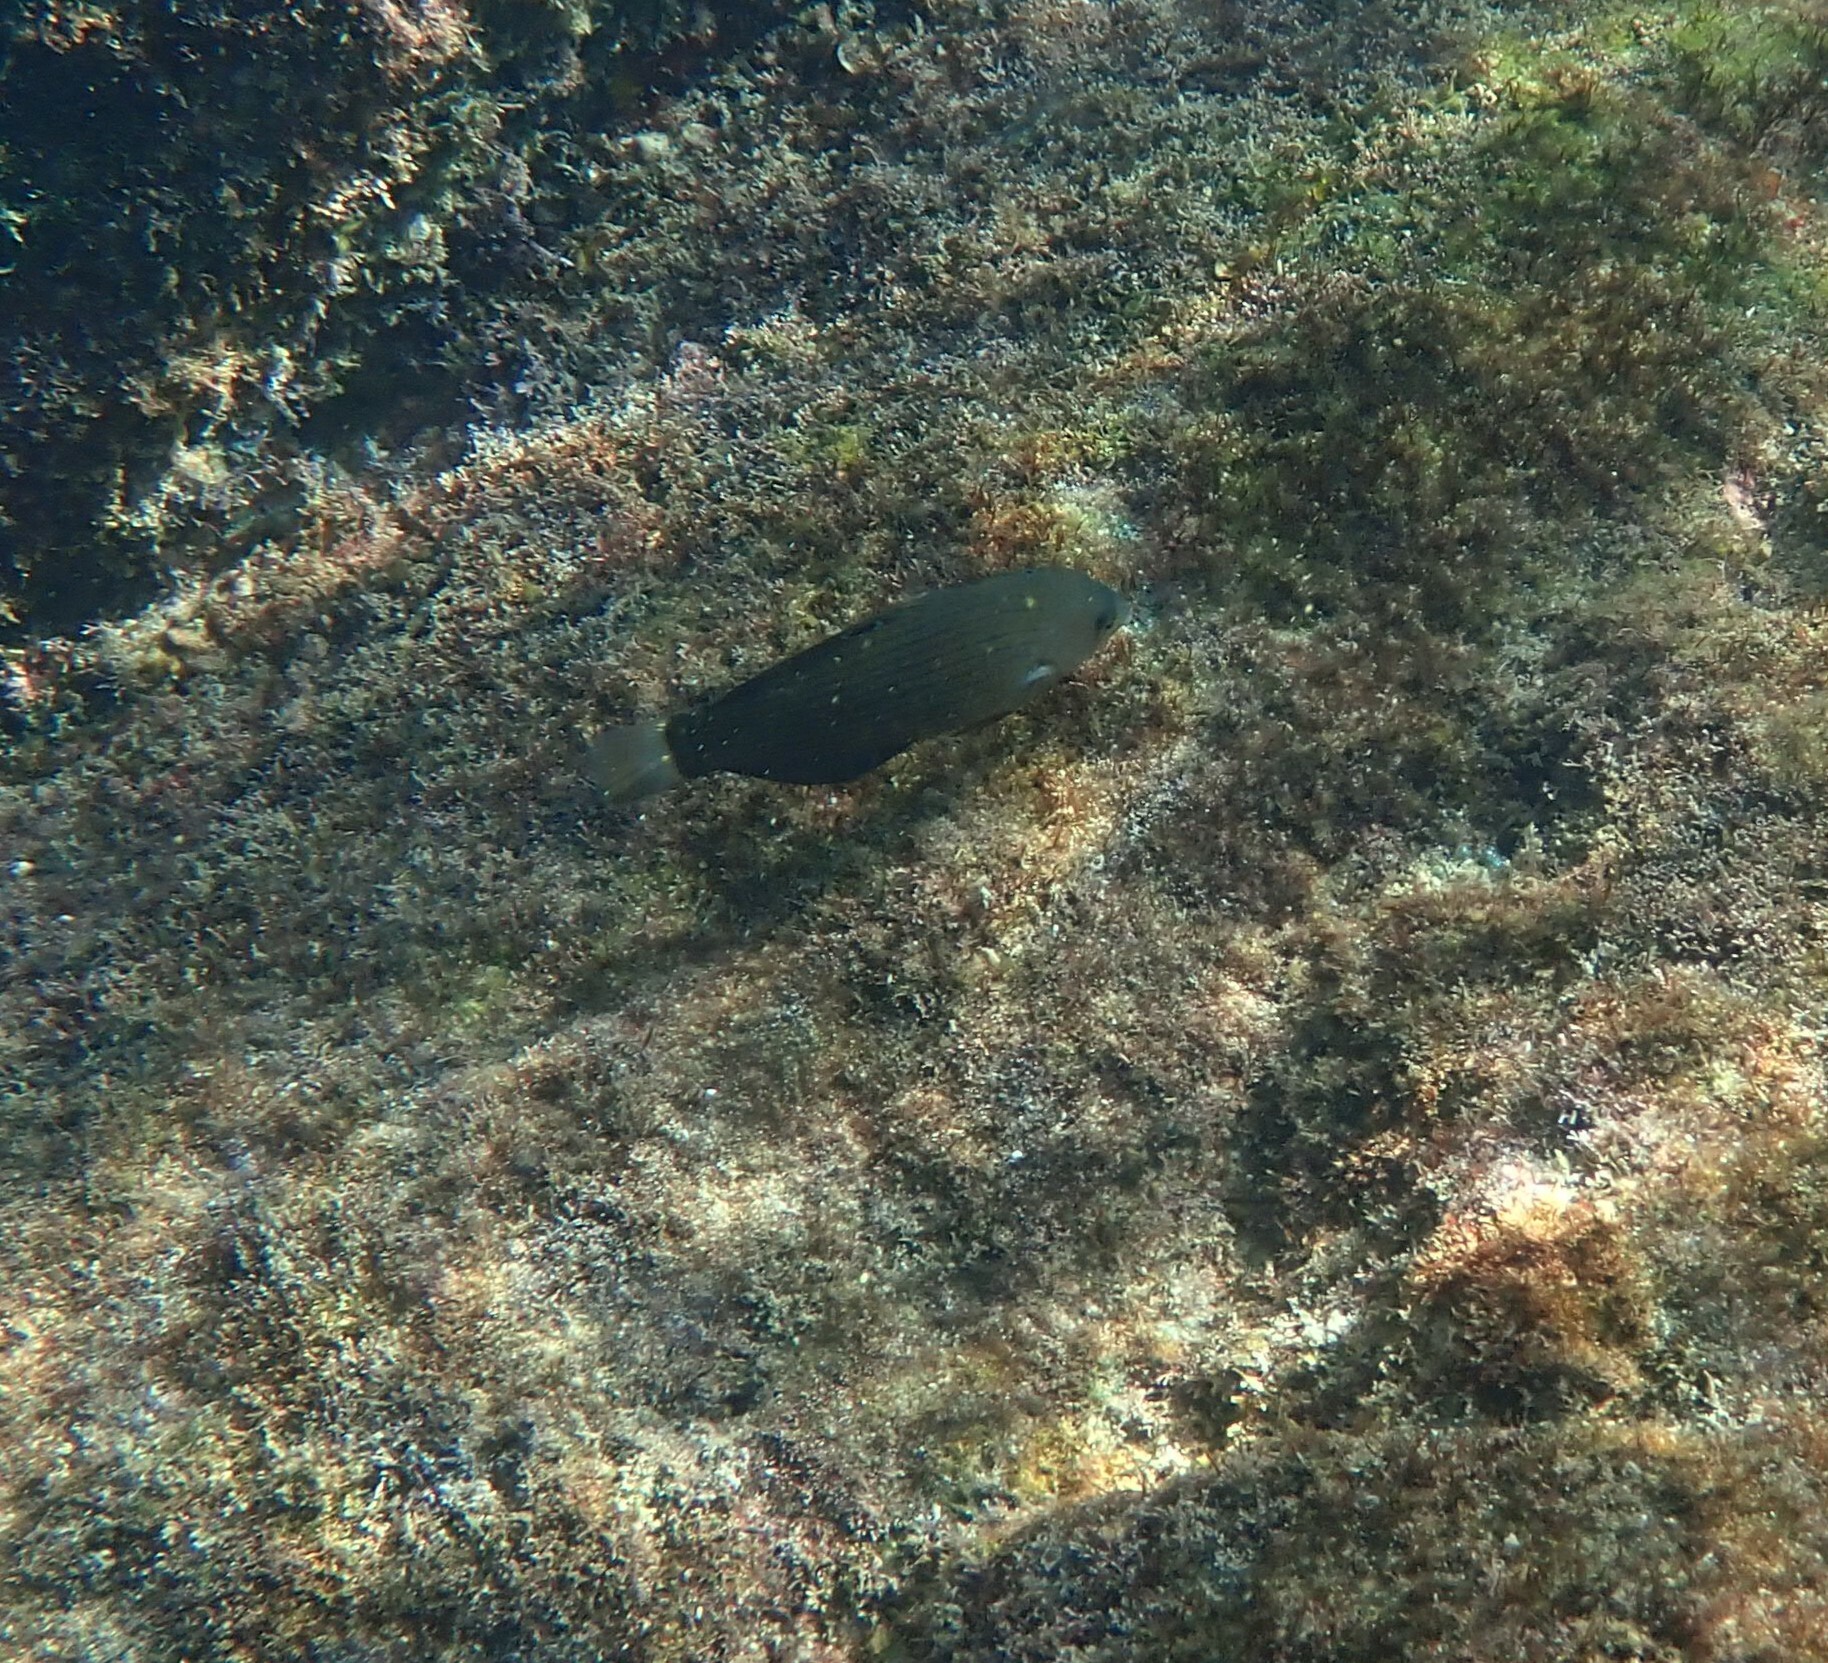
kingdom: Animalia
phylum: Chordata
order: Perciformes
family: Labridae
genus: Halichoeres
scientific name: Halichoeres
